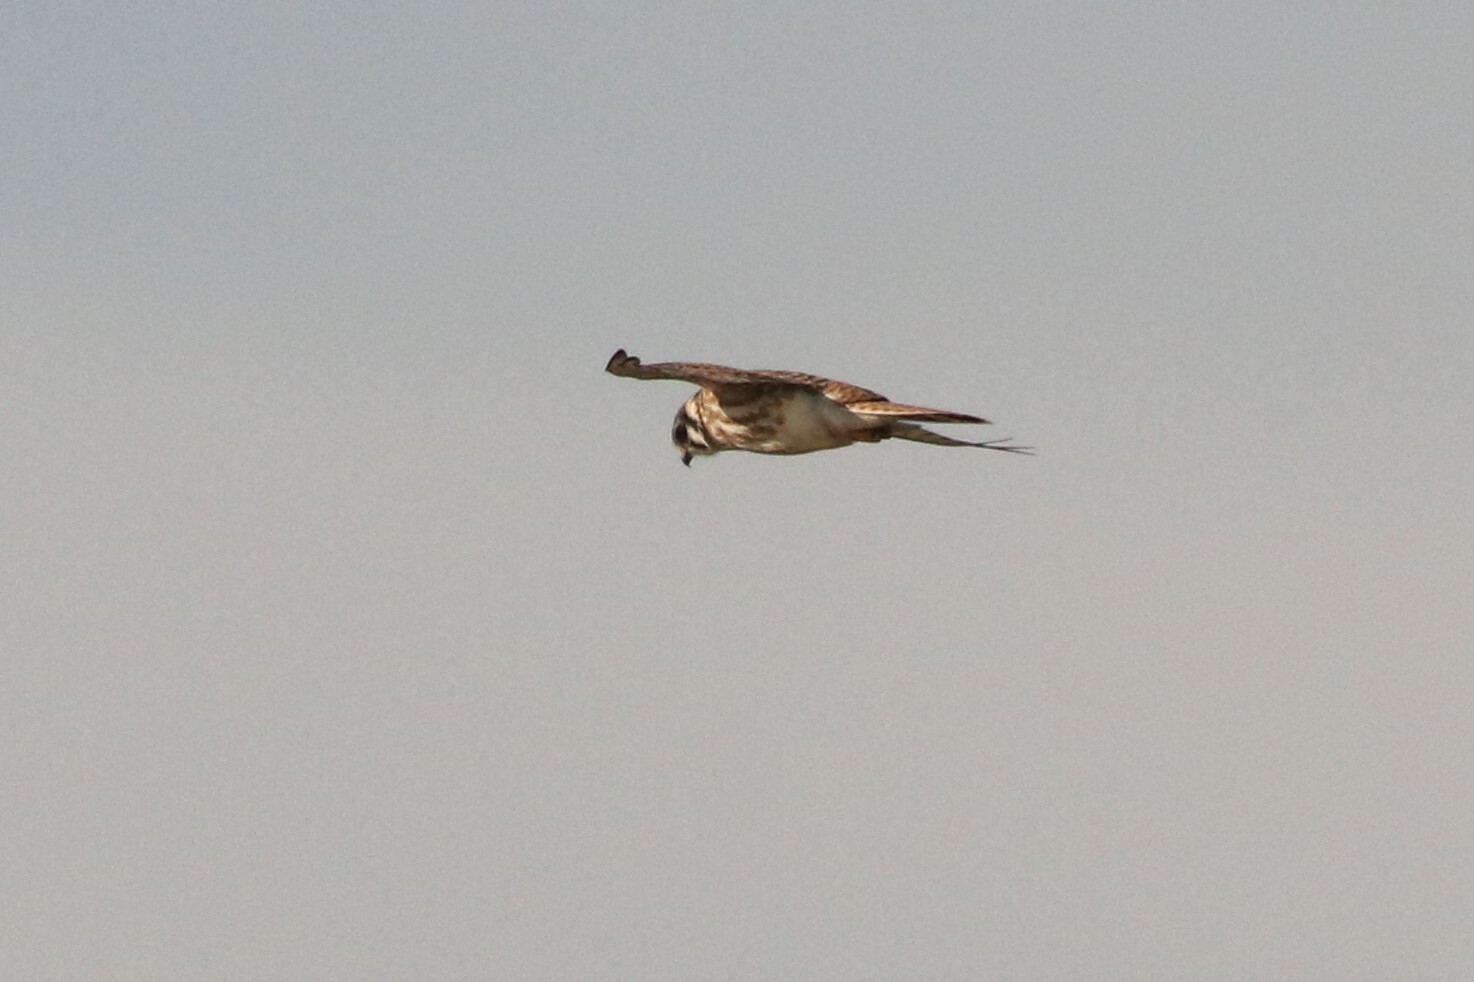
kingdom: Animalia
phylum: Chordata
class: Aves
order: Falconiformes
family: Falconidae
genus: Falco
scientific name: Falco sparverius
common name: American kestrel
